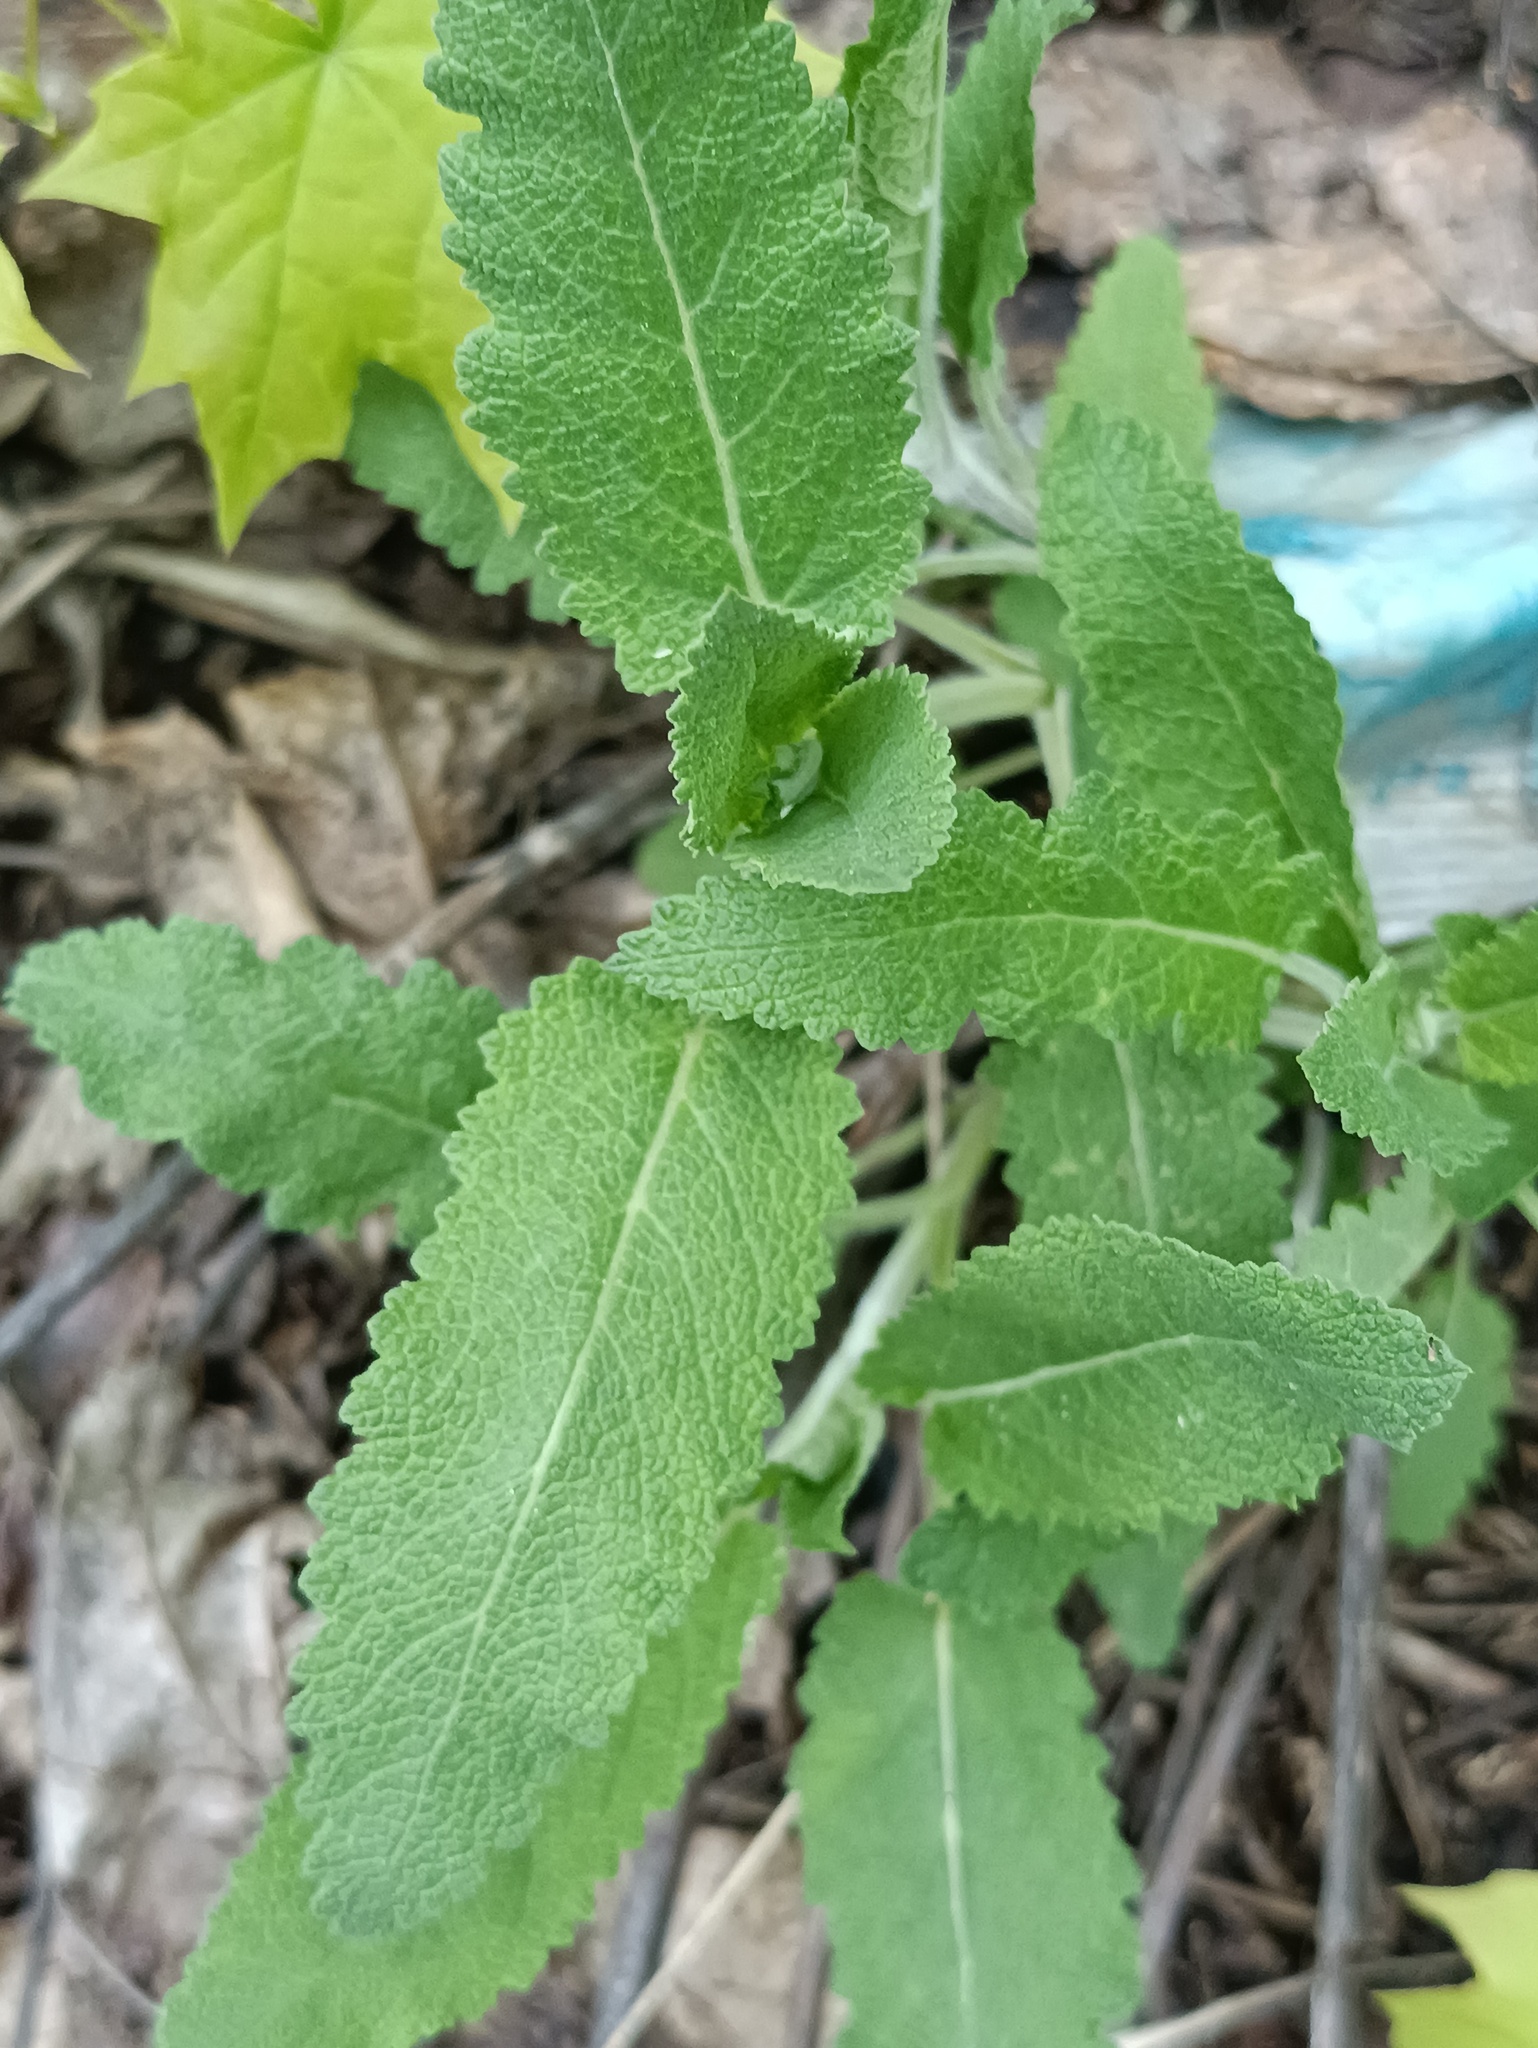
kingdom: Plantae
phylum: Tracheophyta
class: Magnoliopsida
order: Lamiales
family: Lamiaceae
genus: Salvia
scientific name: Salvia nemorosa
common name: Balkan clary
